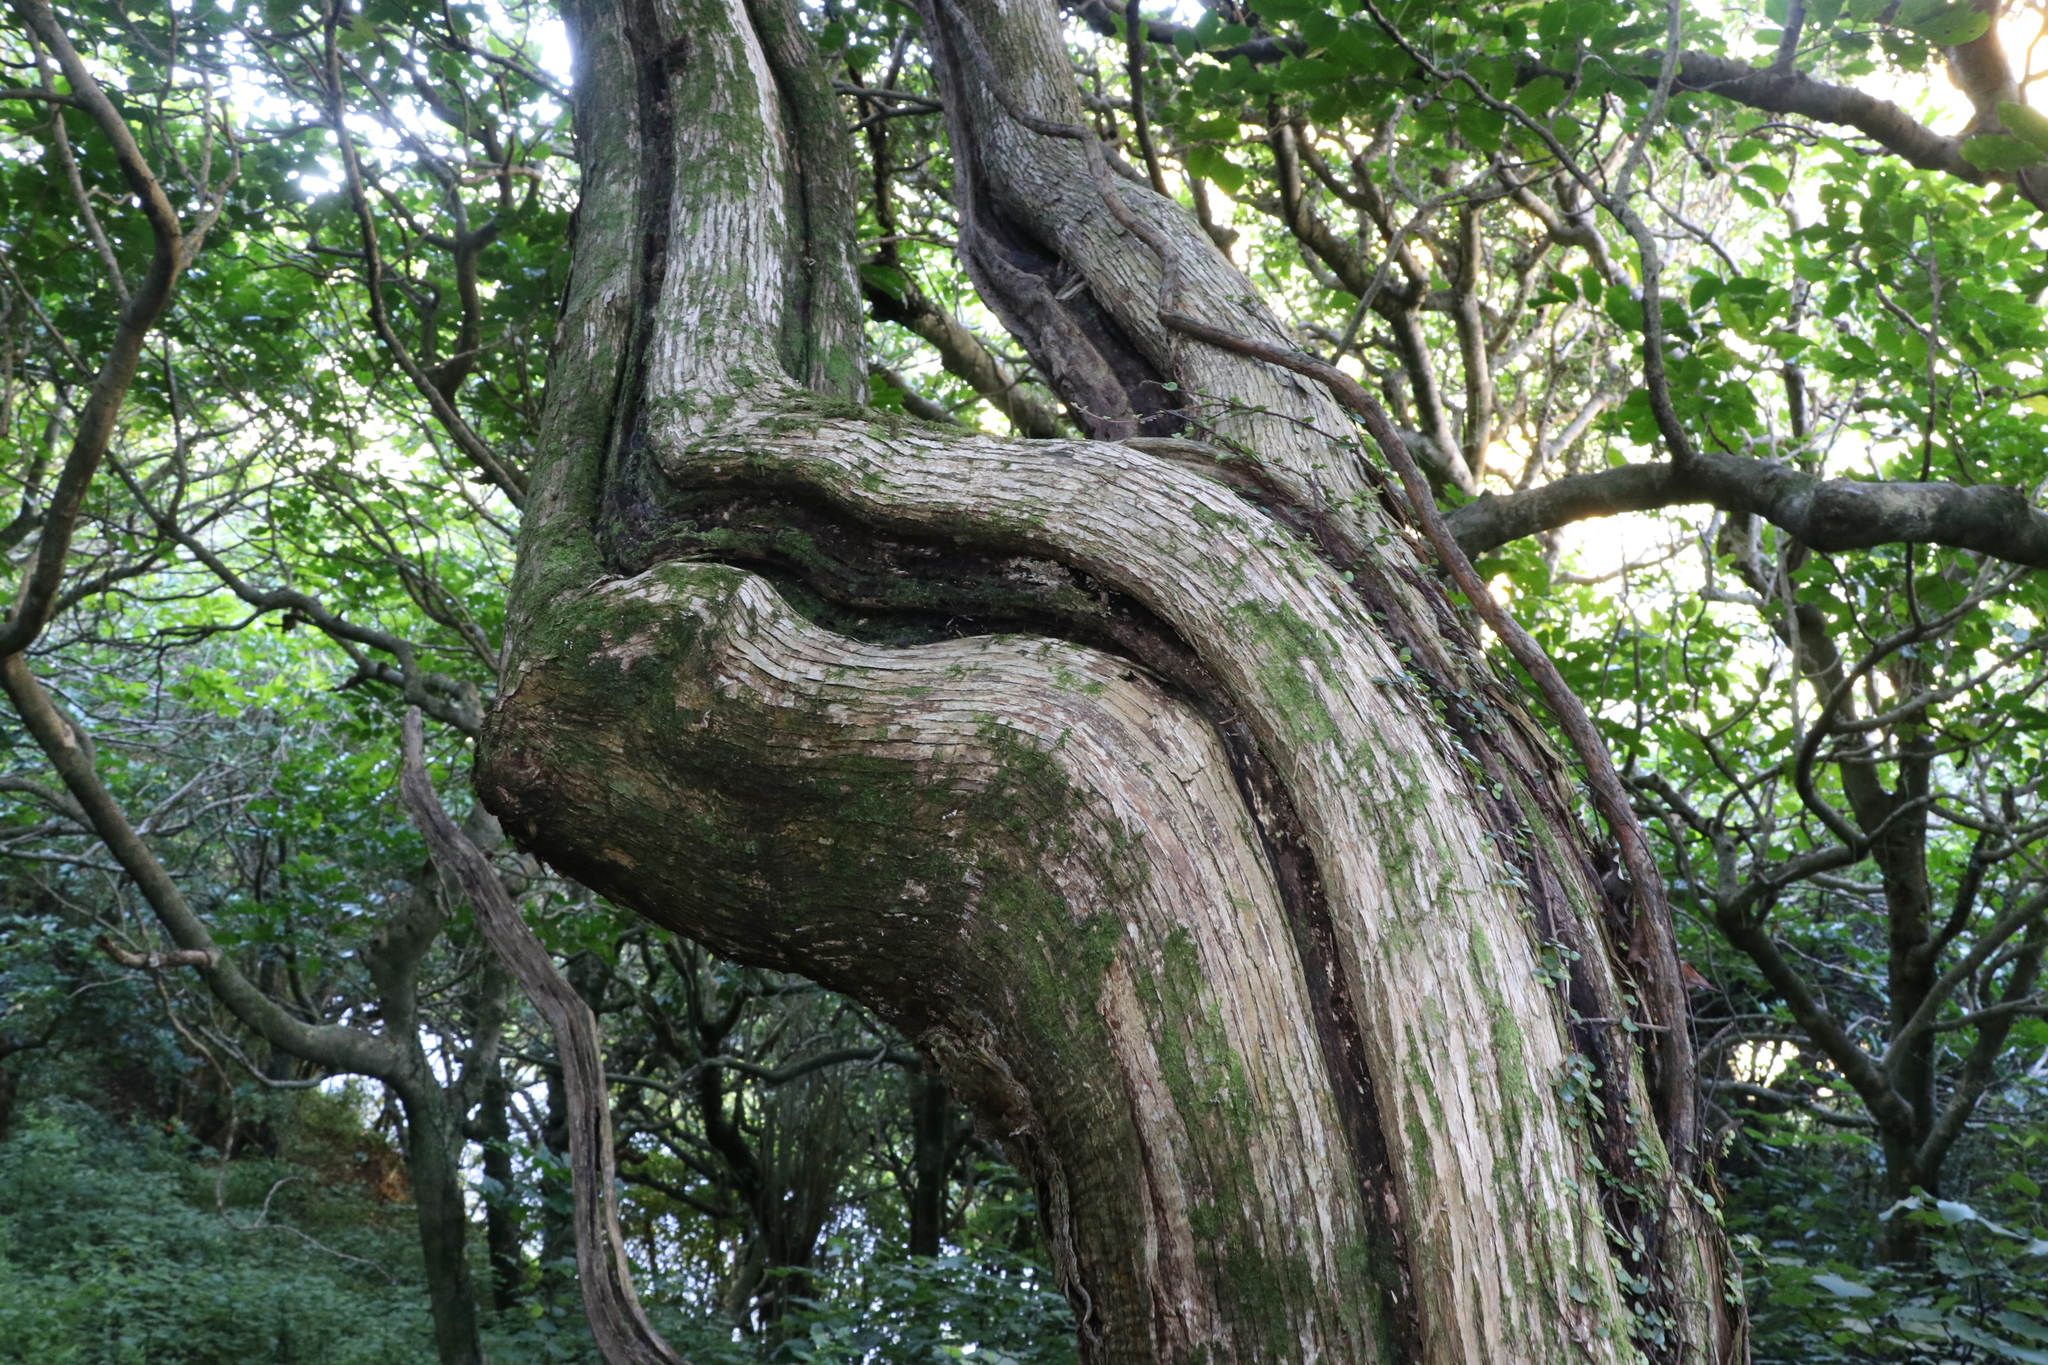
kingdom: Plantae
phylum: Tracheophyta
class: Magnoliopsida
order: Asterales
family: Asteraceae
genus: Olearia
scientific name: Olearia paniculata
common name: Akiraho
